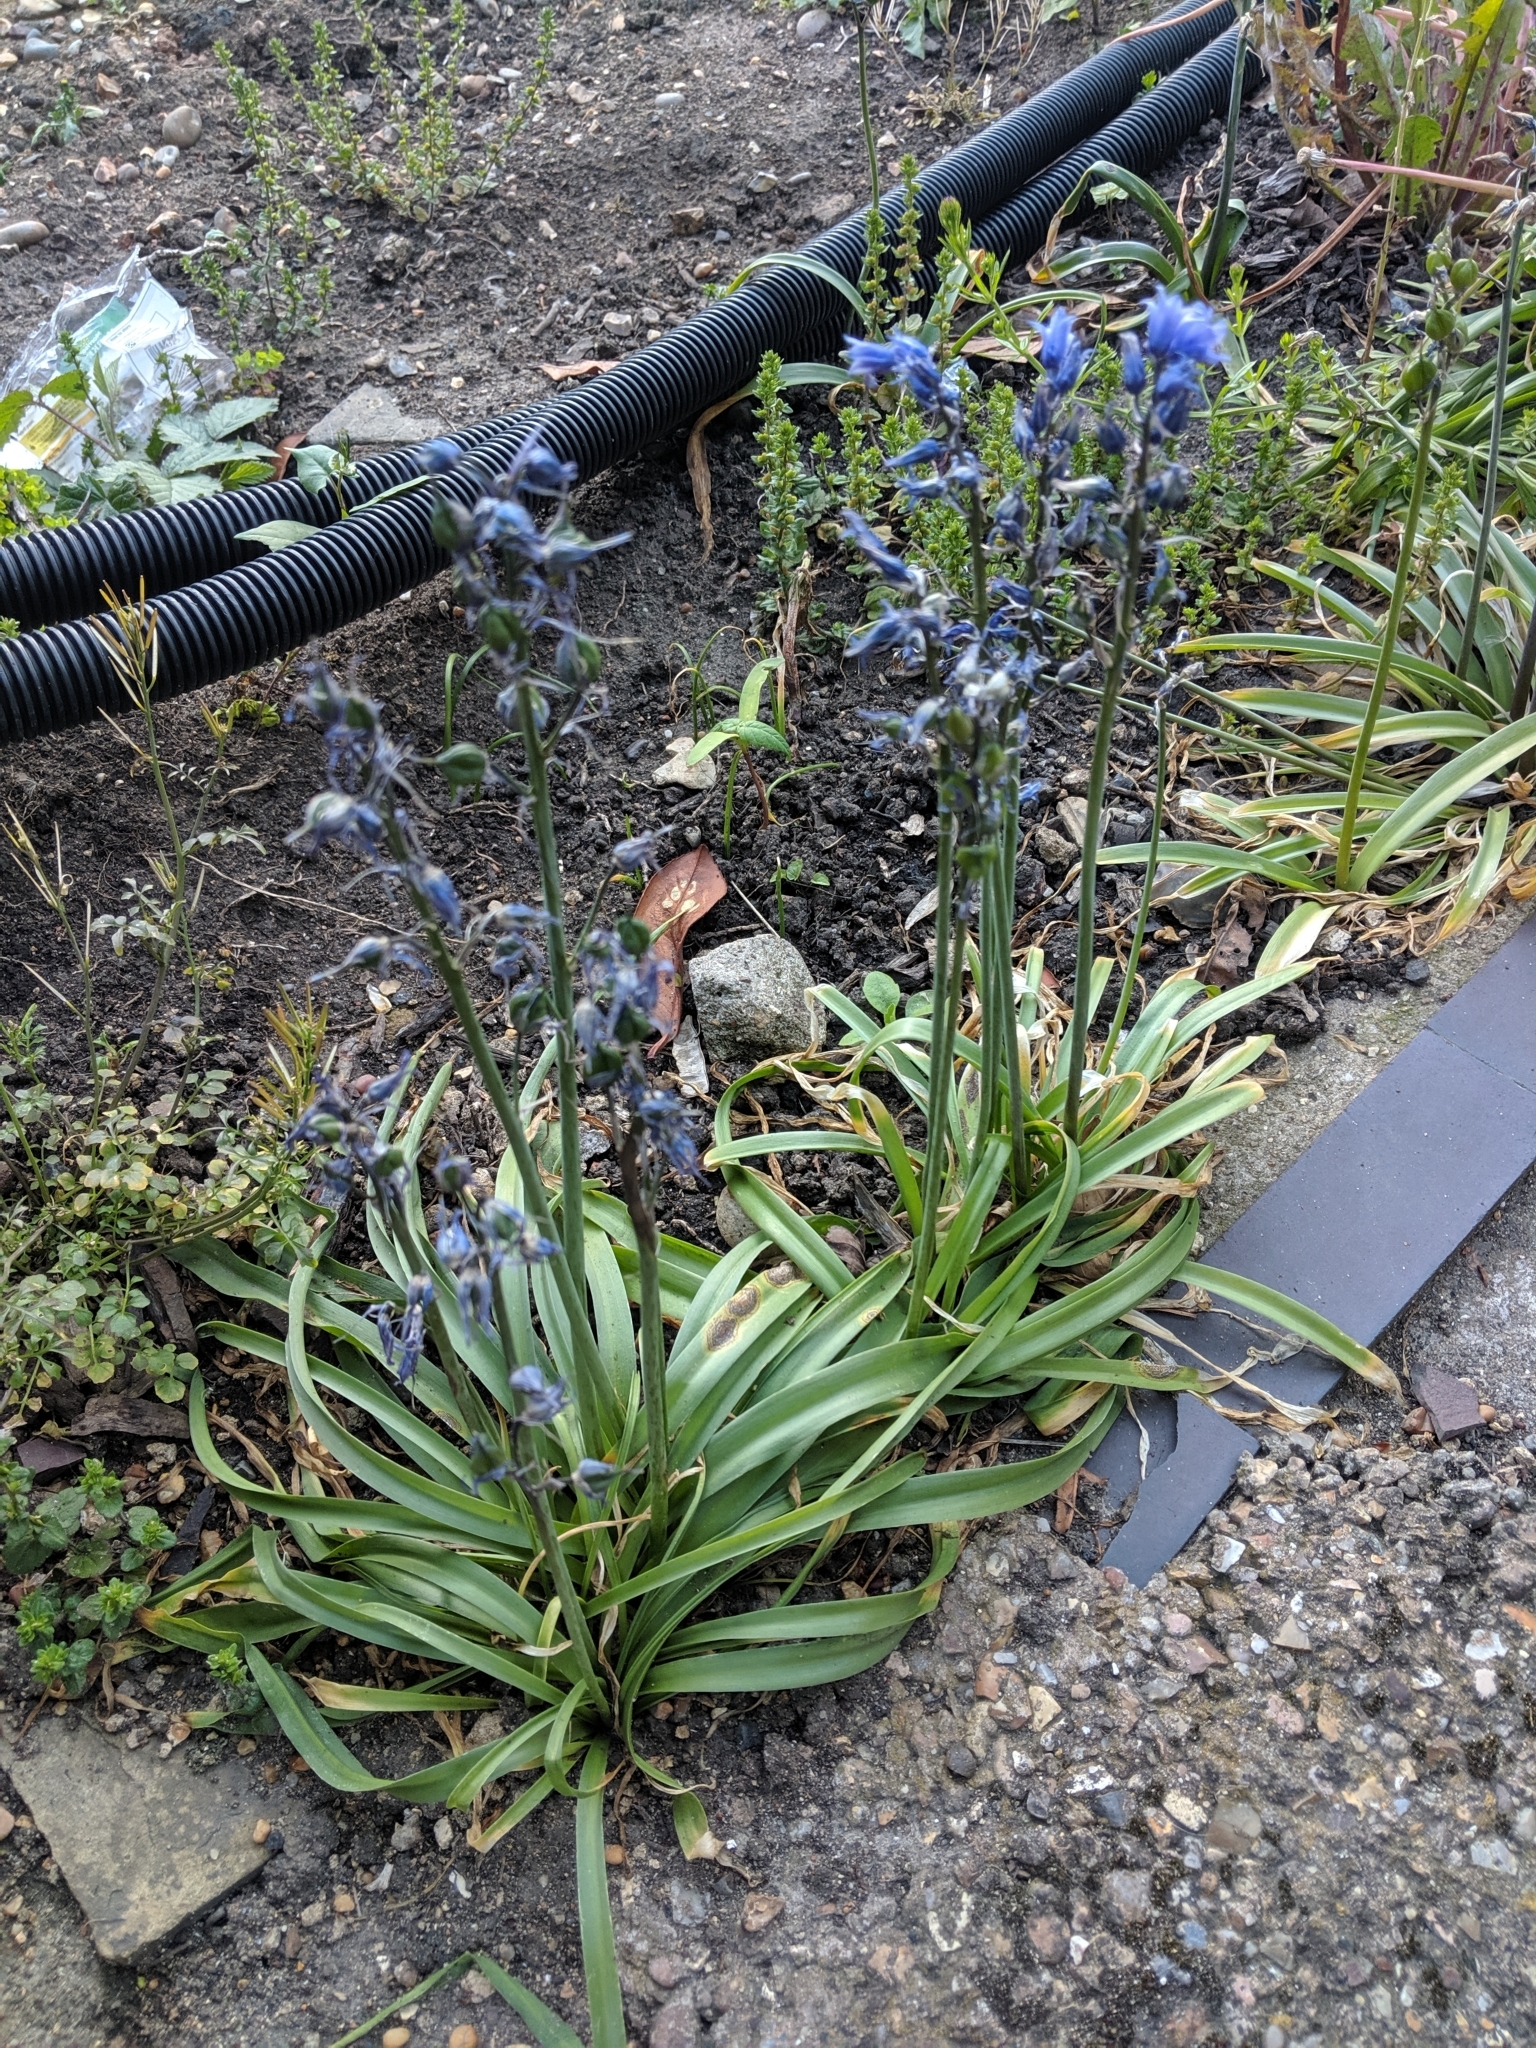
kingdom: Fungi
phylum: Basidiomycota
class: Pucciniomycetes
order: Pucciniales
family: Pucciniaceae
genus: Uromyces
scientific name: Uromyces hyacinthi
